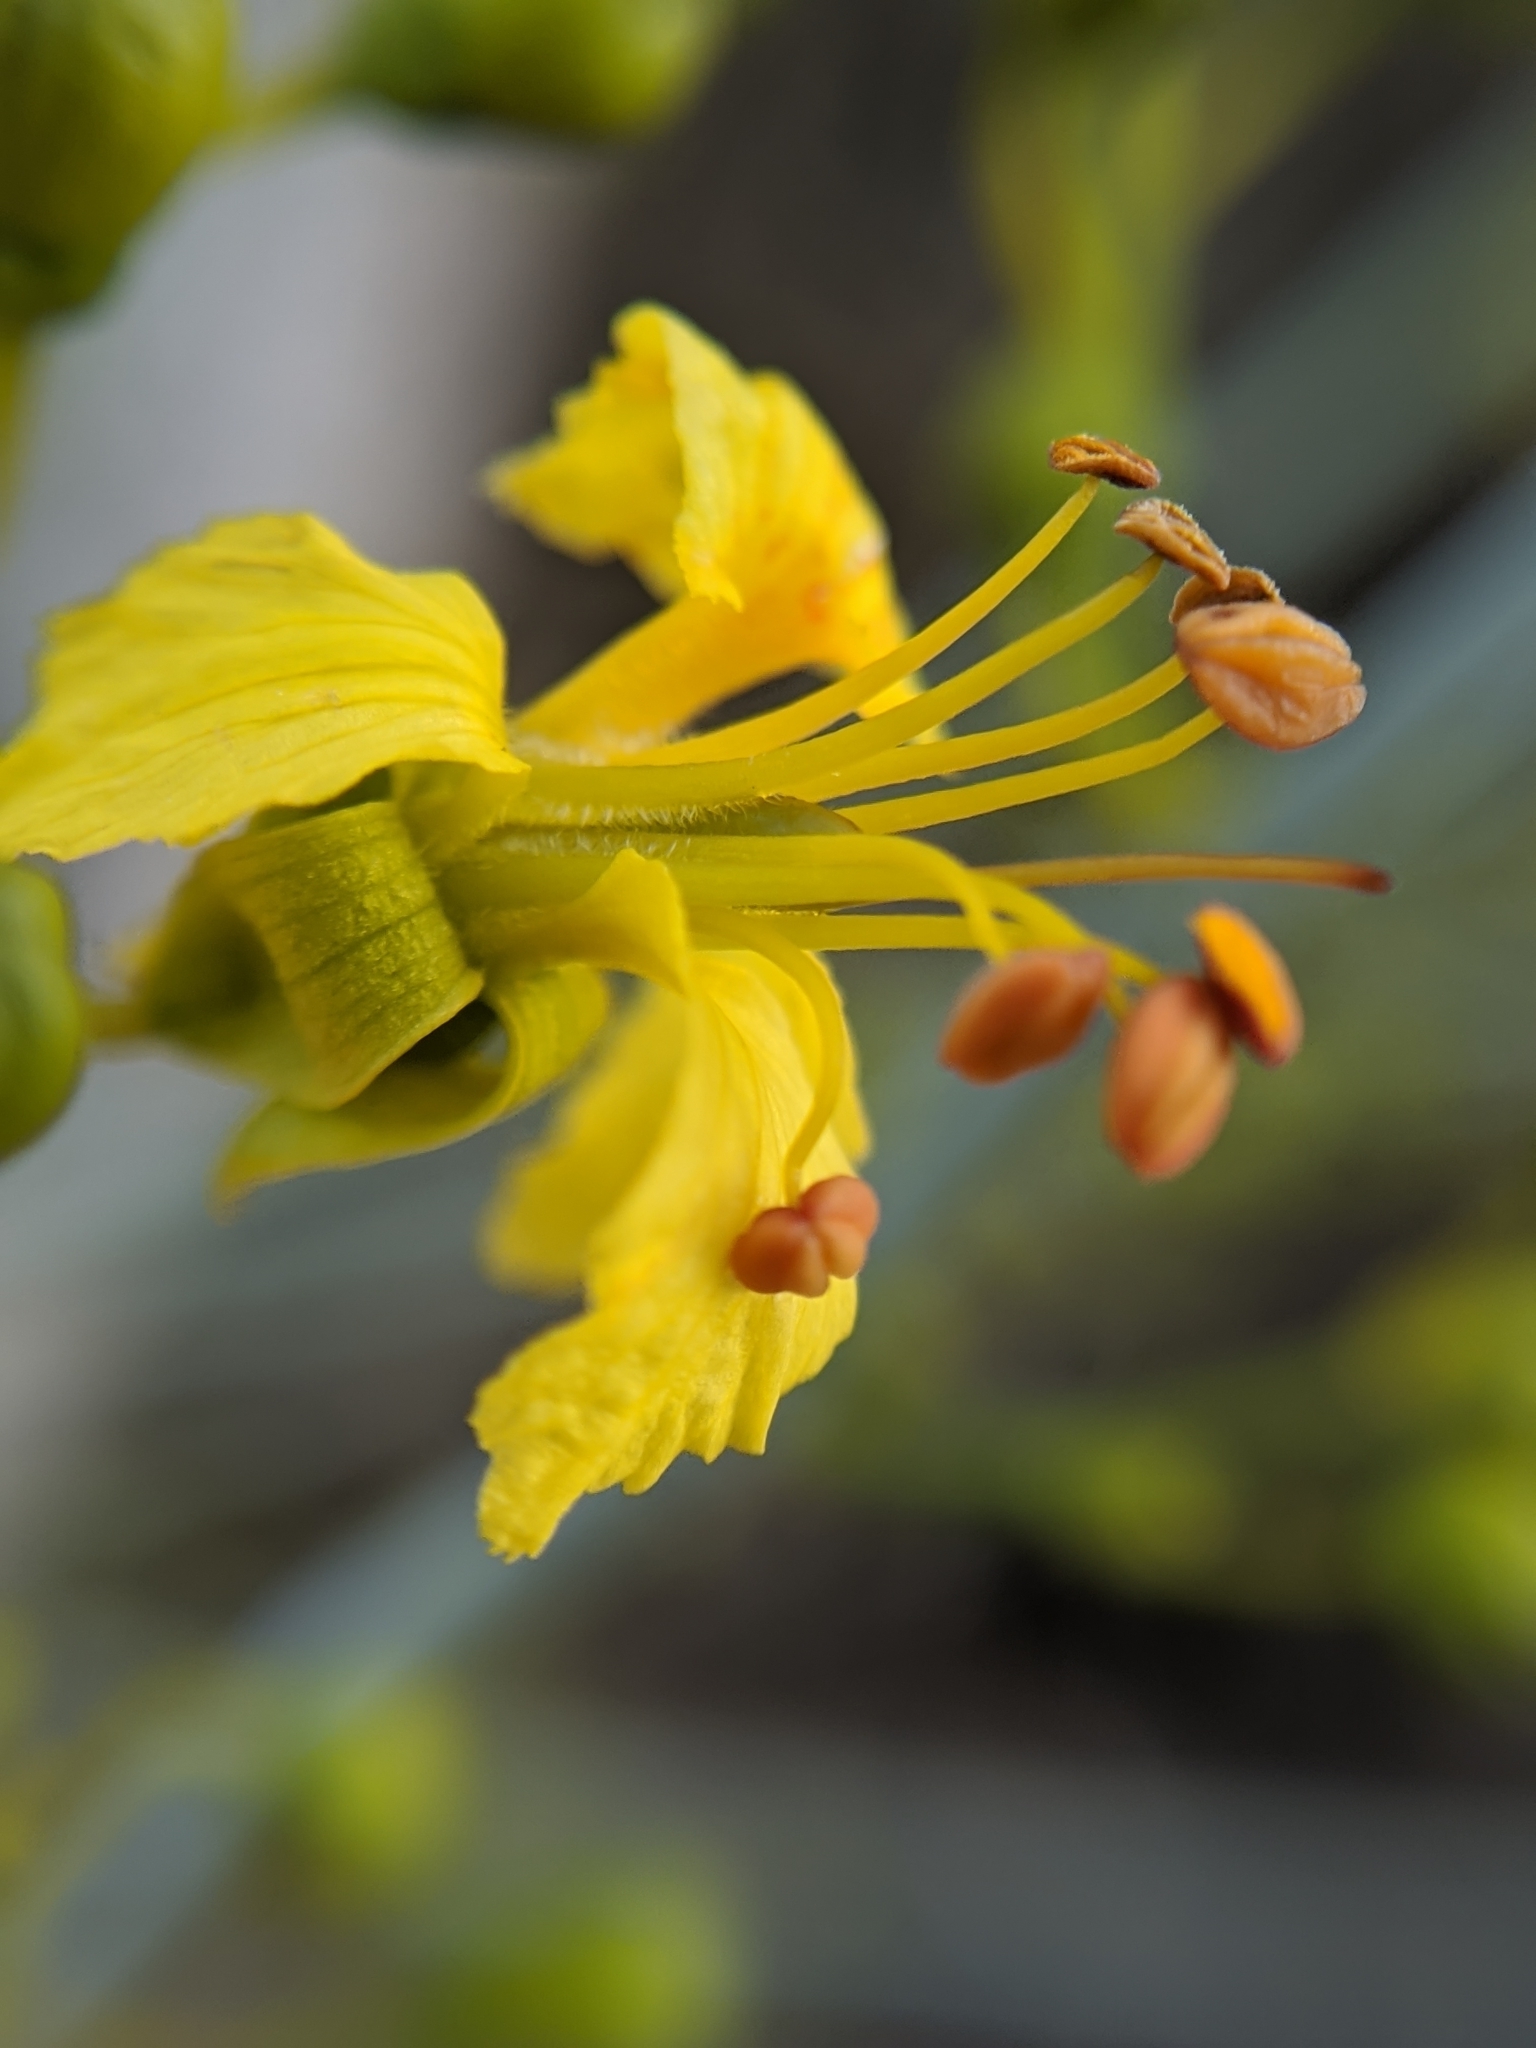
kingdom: Plantae
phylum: Tracheophyta
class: Magnoliopsida
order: Fabales
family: Fabaceae
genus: Parkinsonia
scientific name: Parkinsonia florida
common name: Blue paloverde
